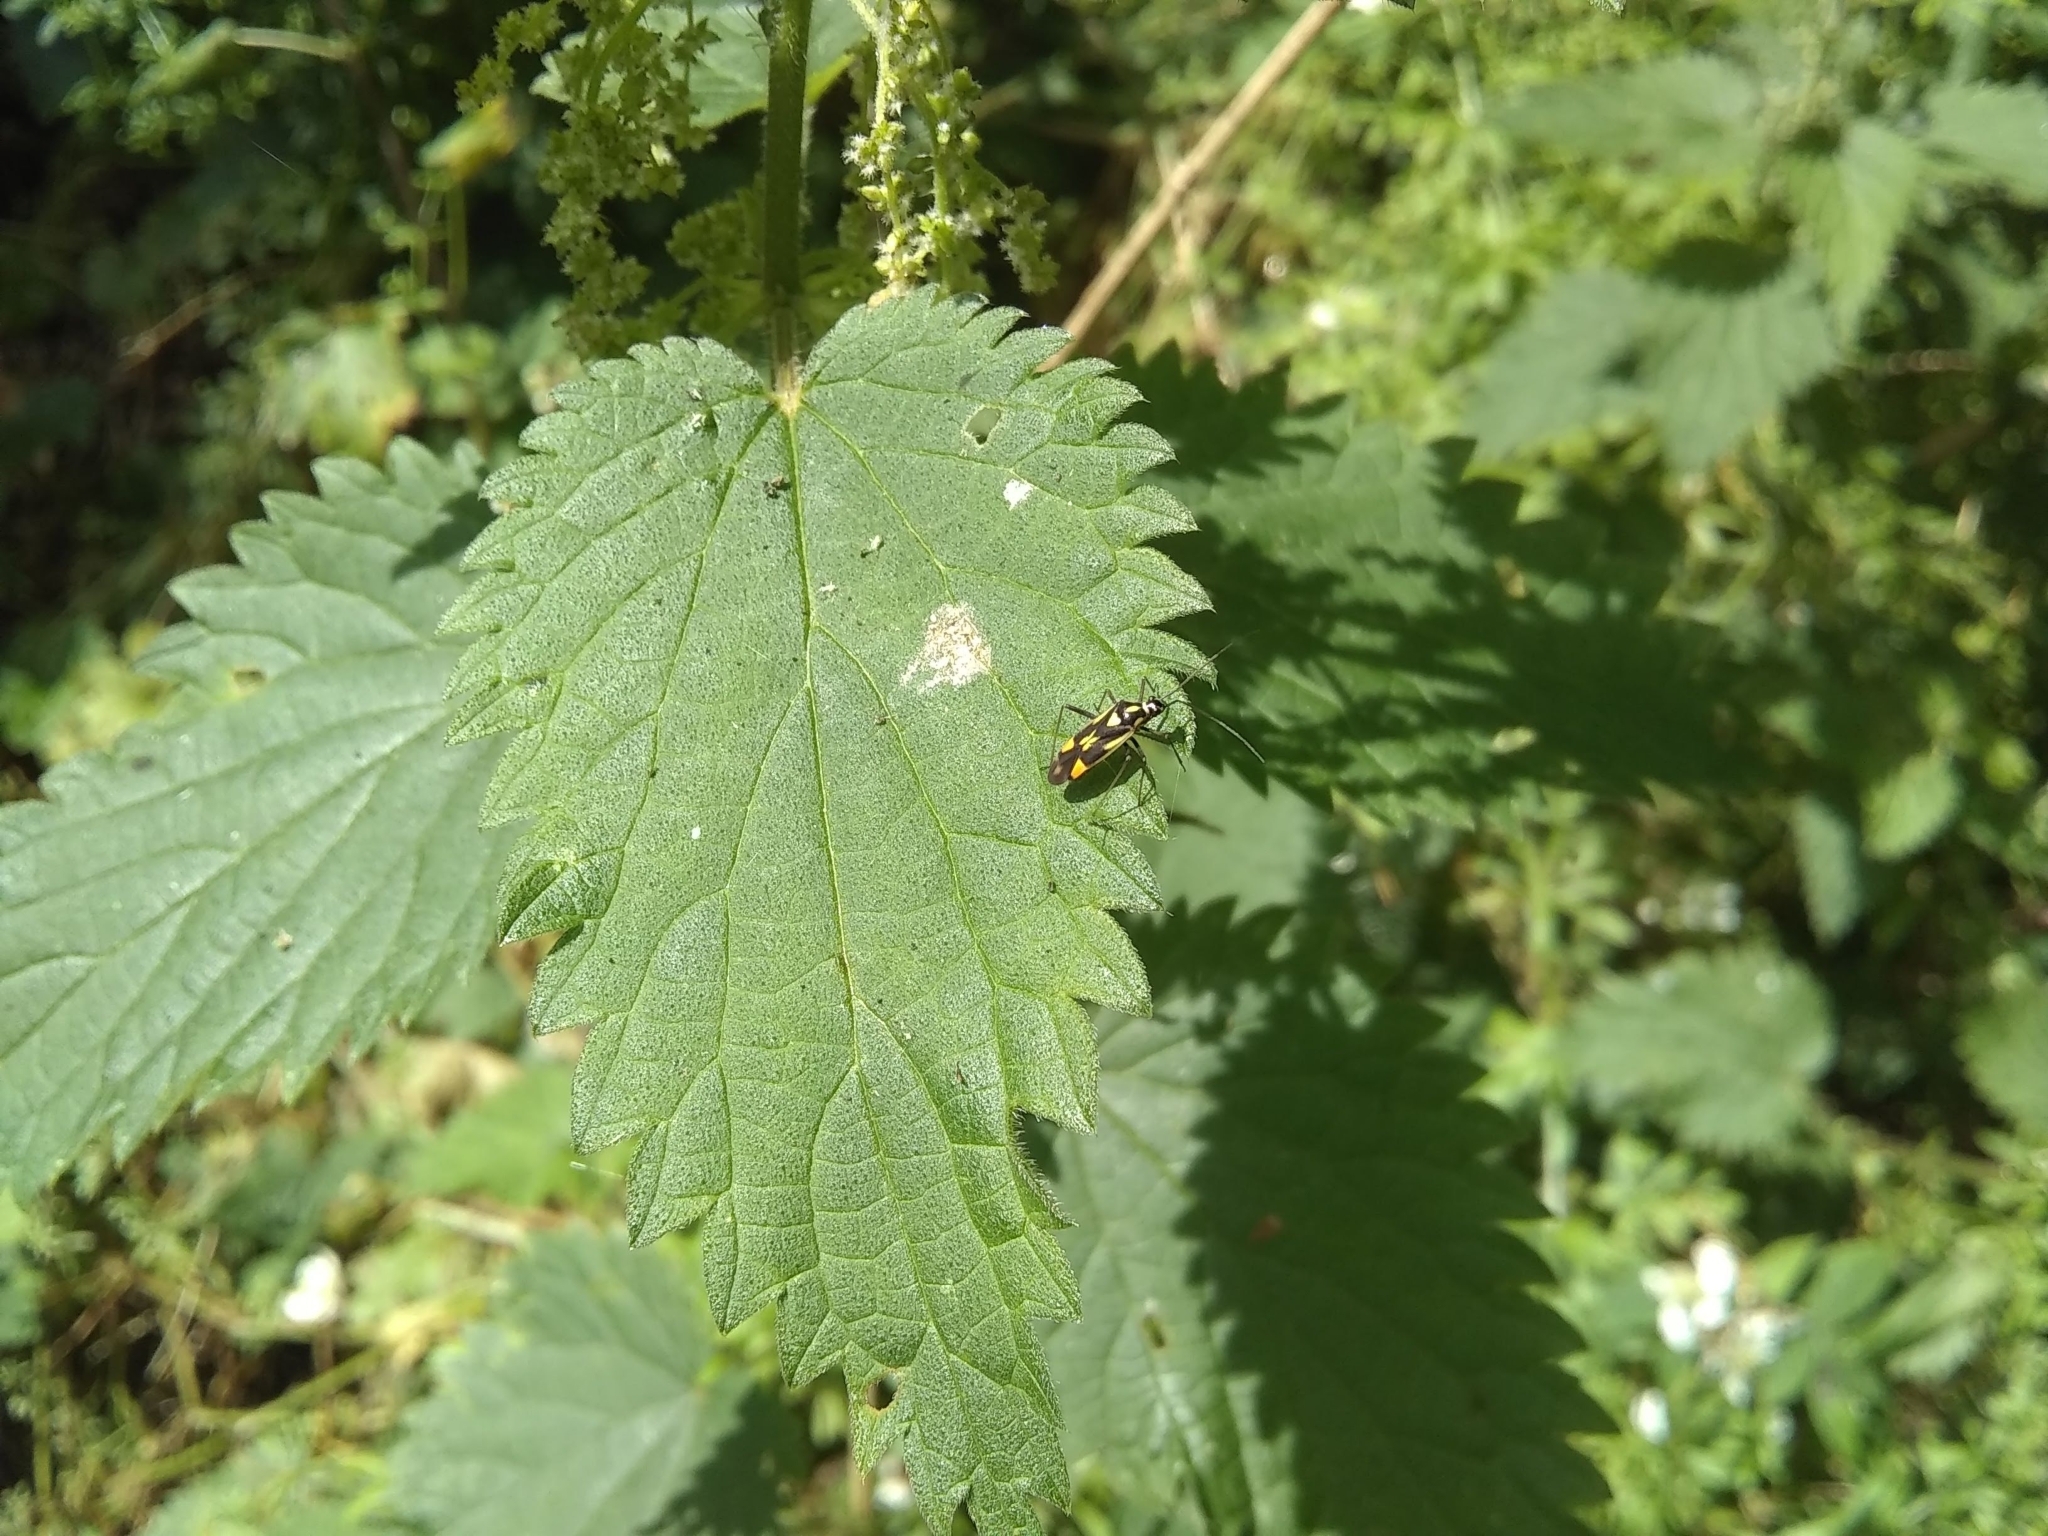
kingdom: Animalia
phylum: Arthropoda
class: Insecta
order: Hemiptera
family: Miridae
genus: Grypocoris
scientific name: Grypocoris stysi
